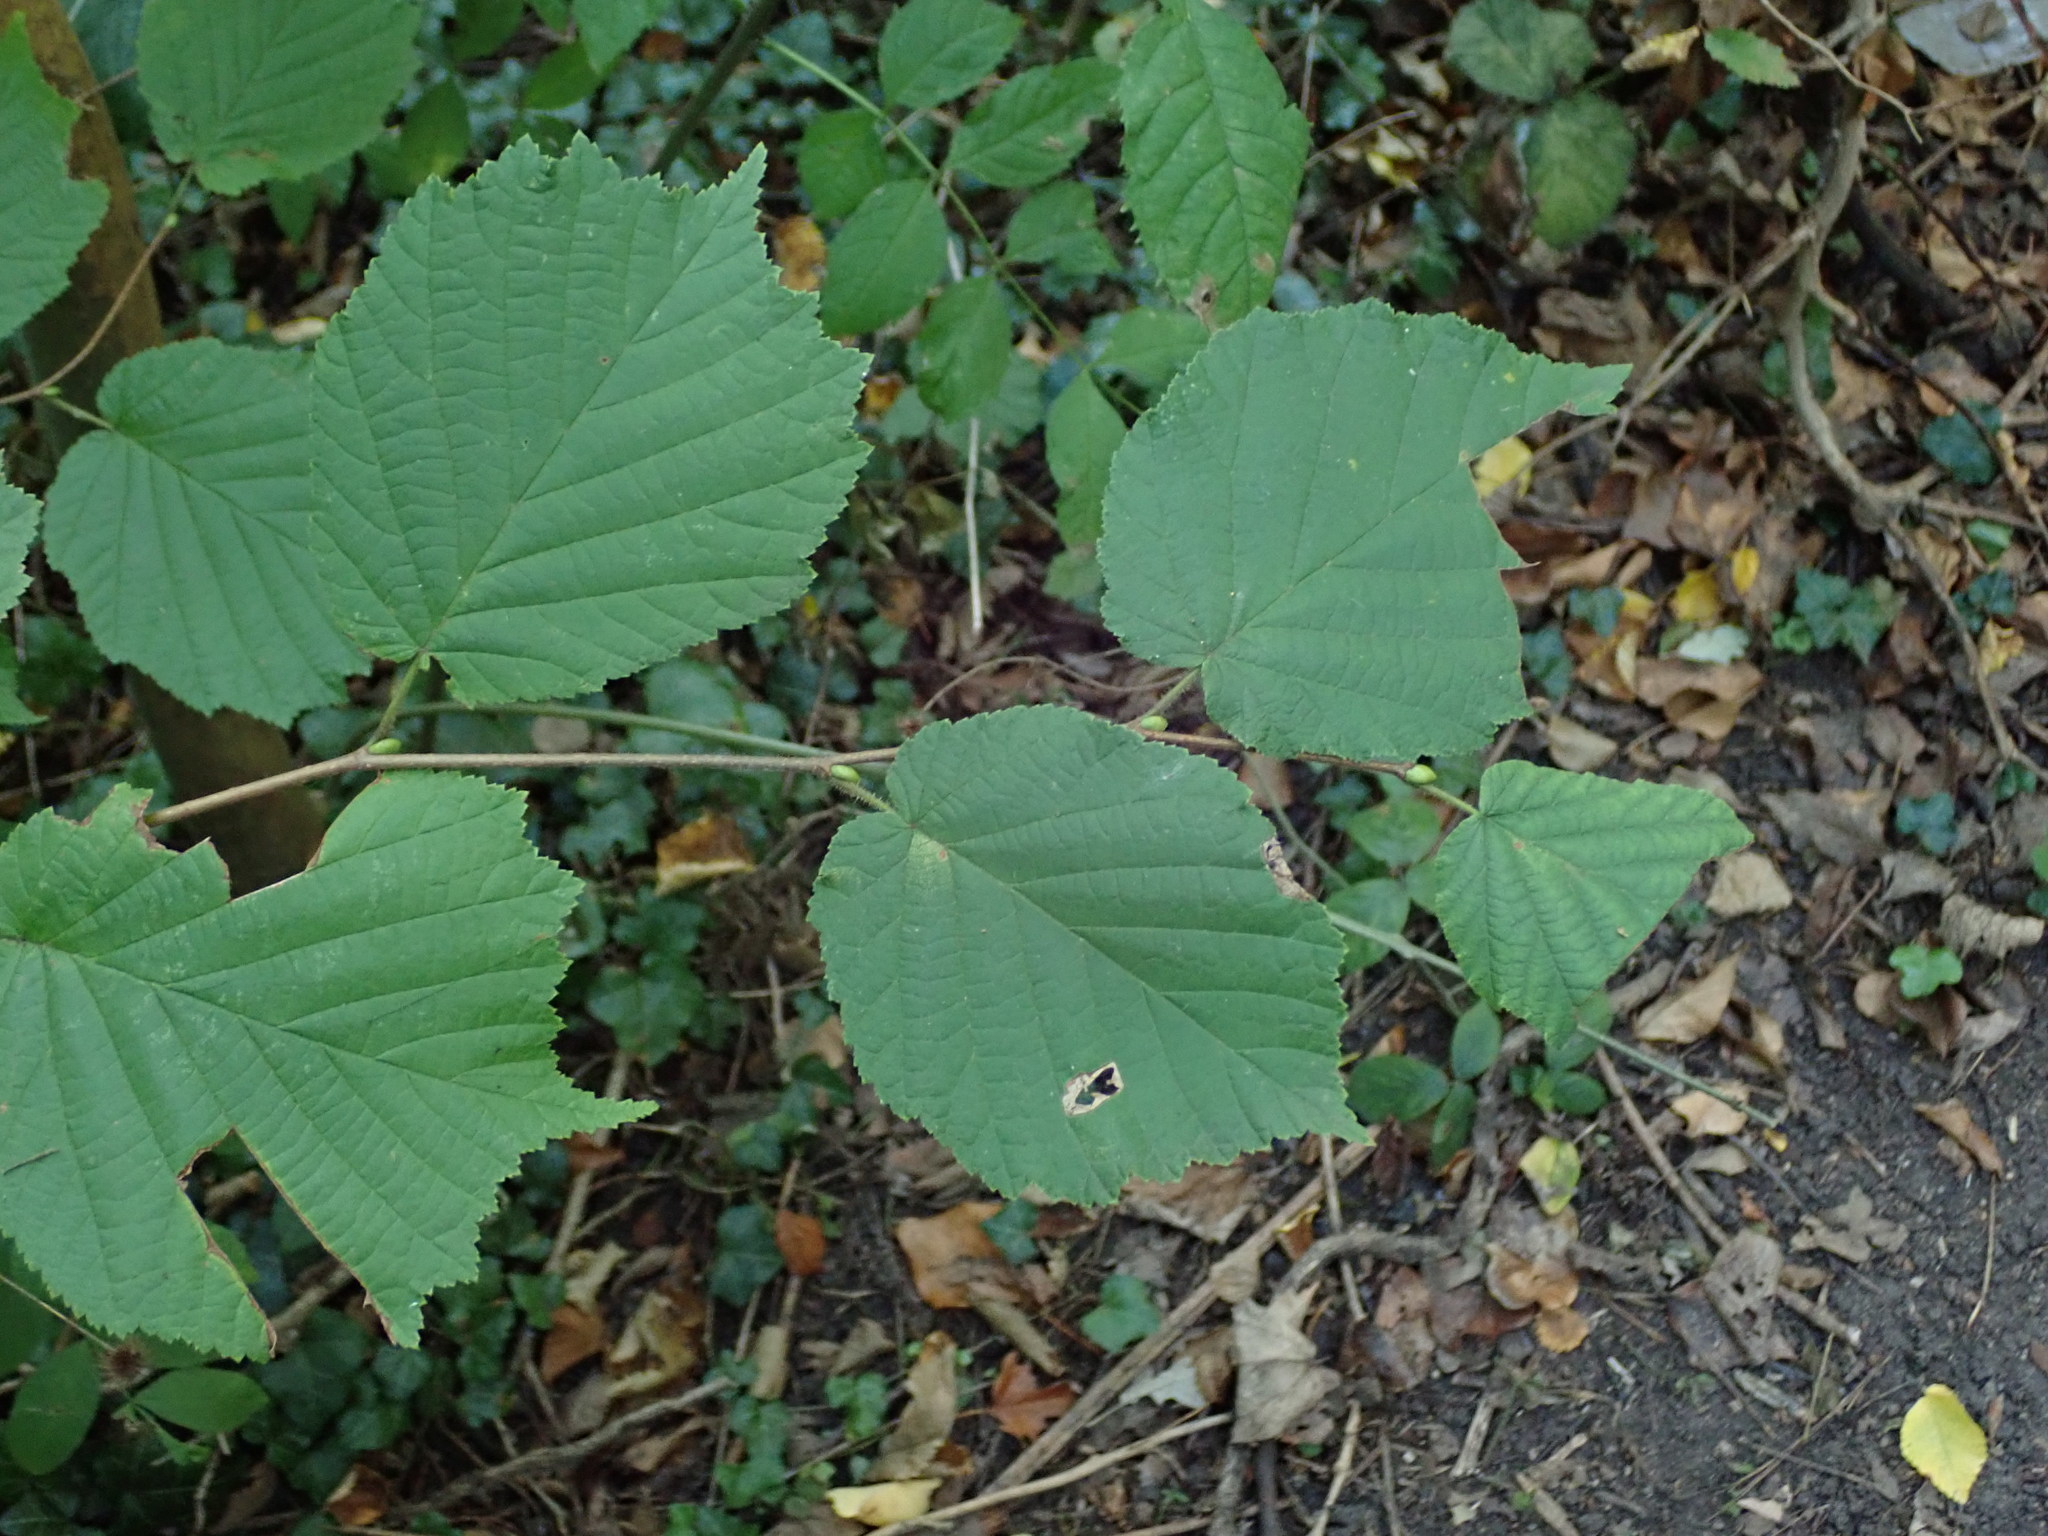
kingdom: Plantae
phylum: Tracheophyta
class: Magnoliopsida
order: Fagales
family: Betulaceae
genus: Corylus
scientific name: Corylus avellana
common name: European hazel
